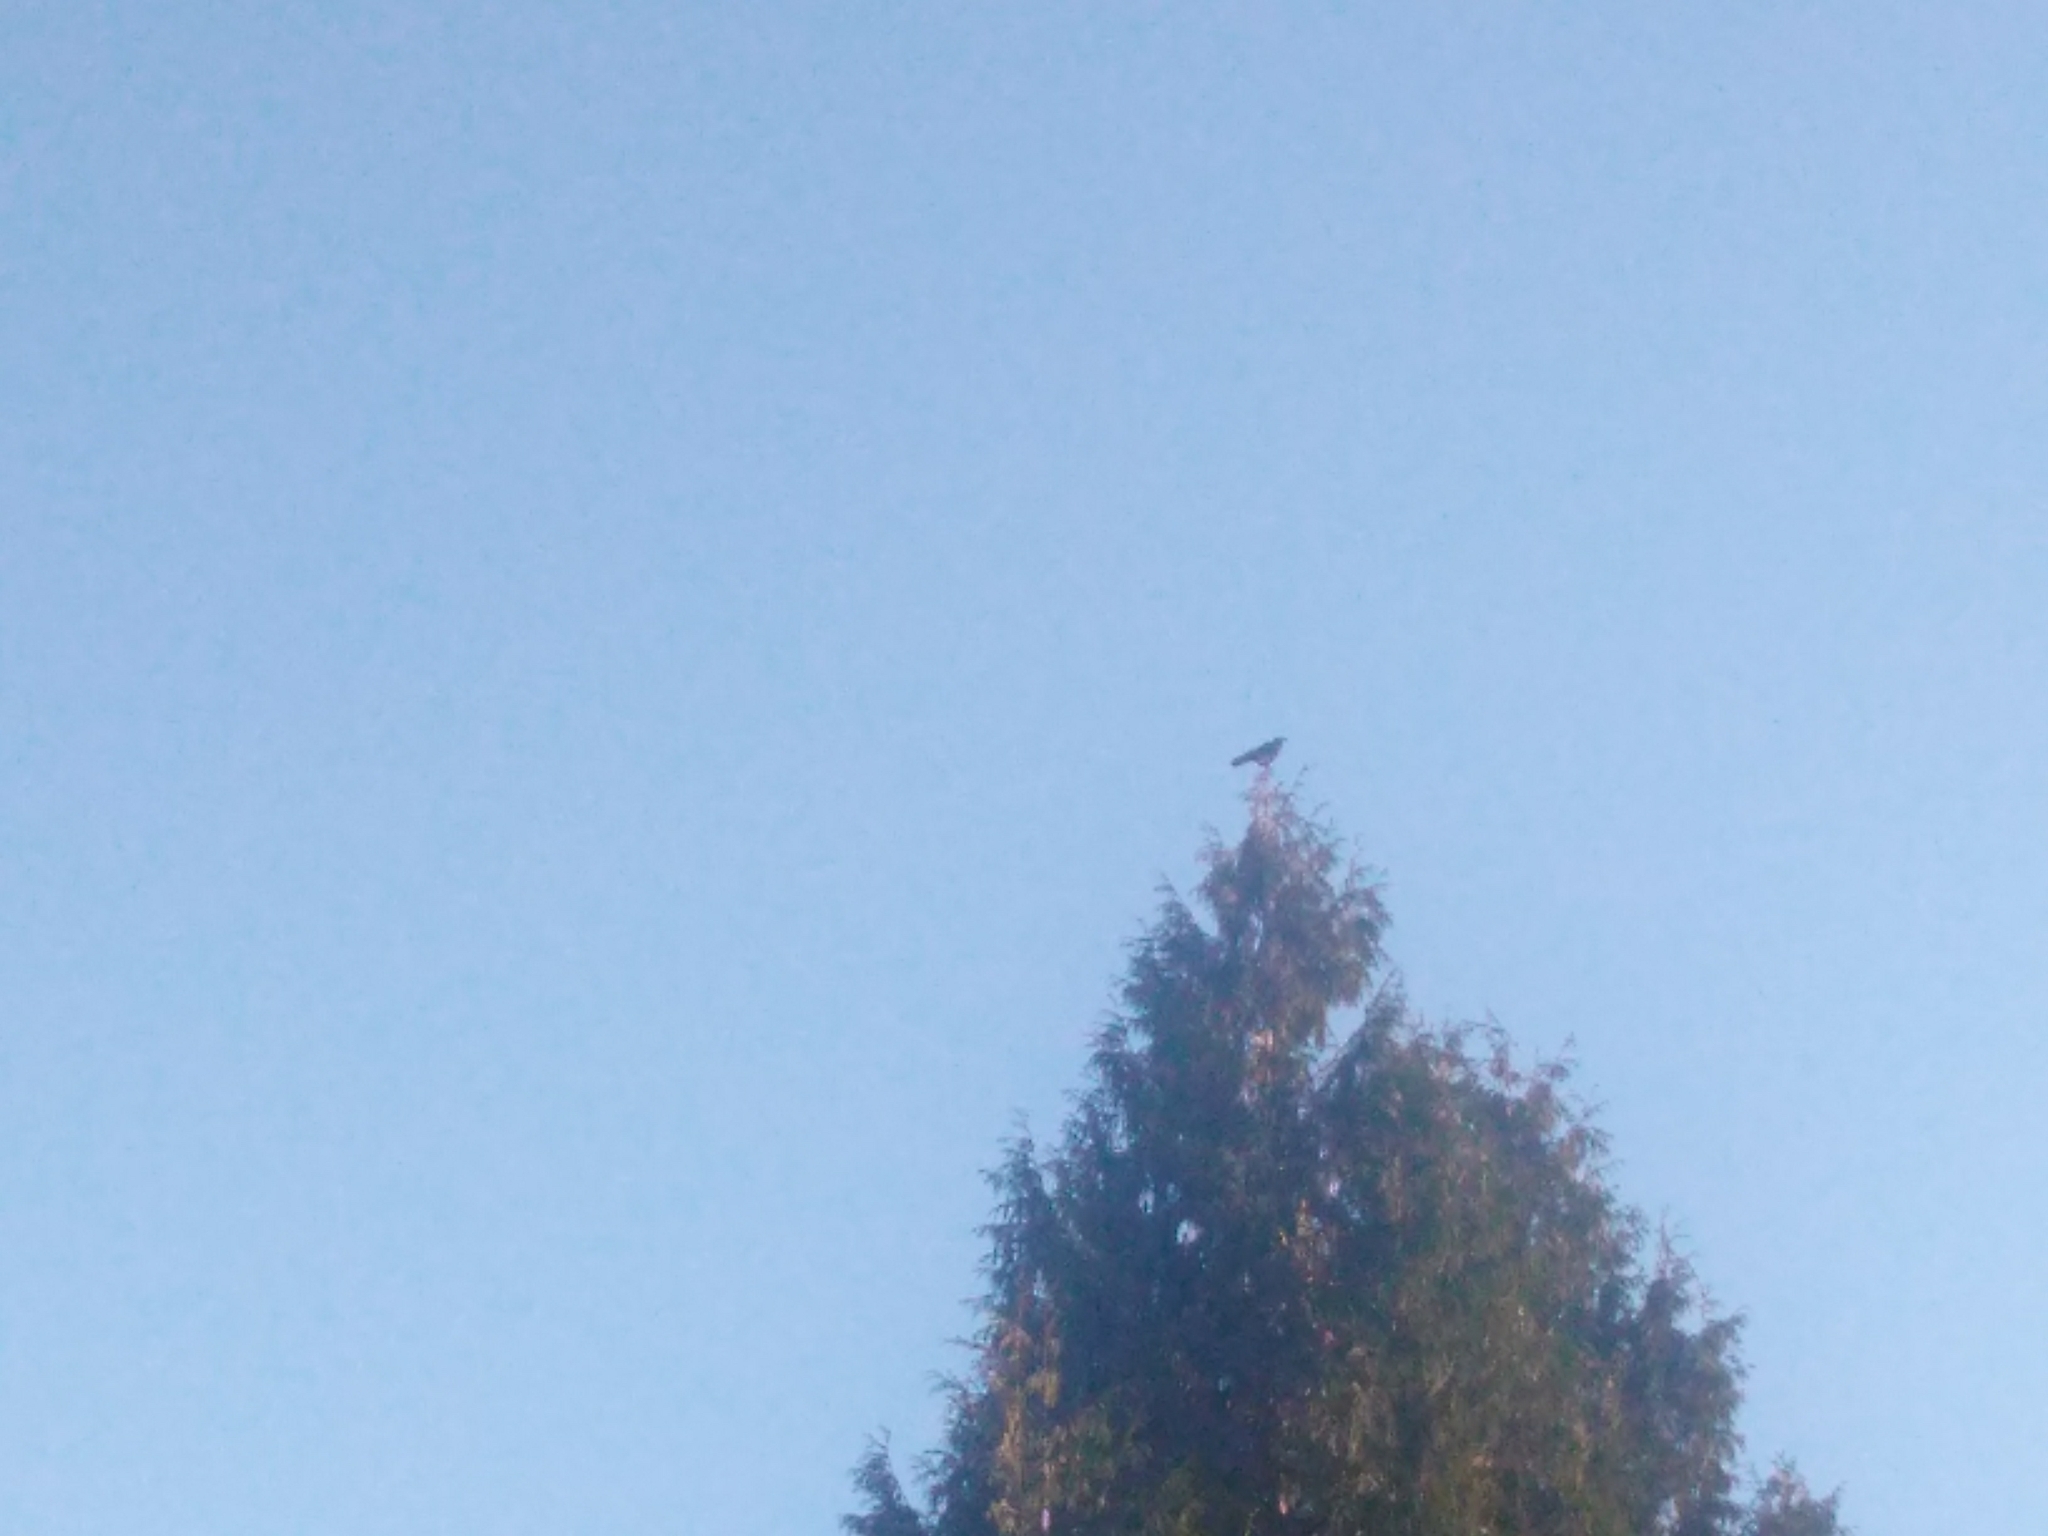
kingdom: Animalia
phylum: Chordata
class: Aves
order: Passeriformes
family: Corvidae
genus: Corvus
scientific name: Corvus brachyrhynchos
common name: American crow
